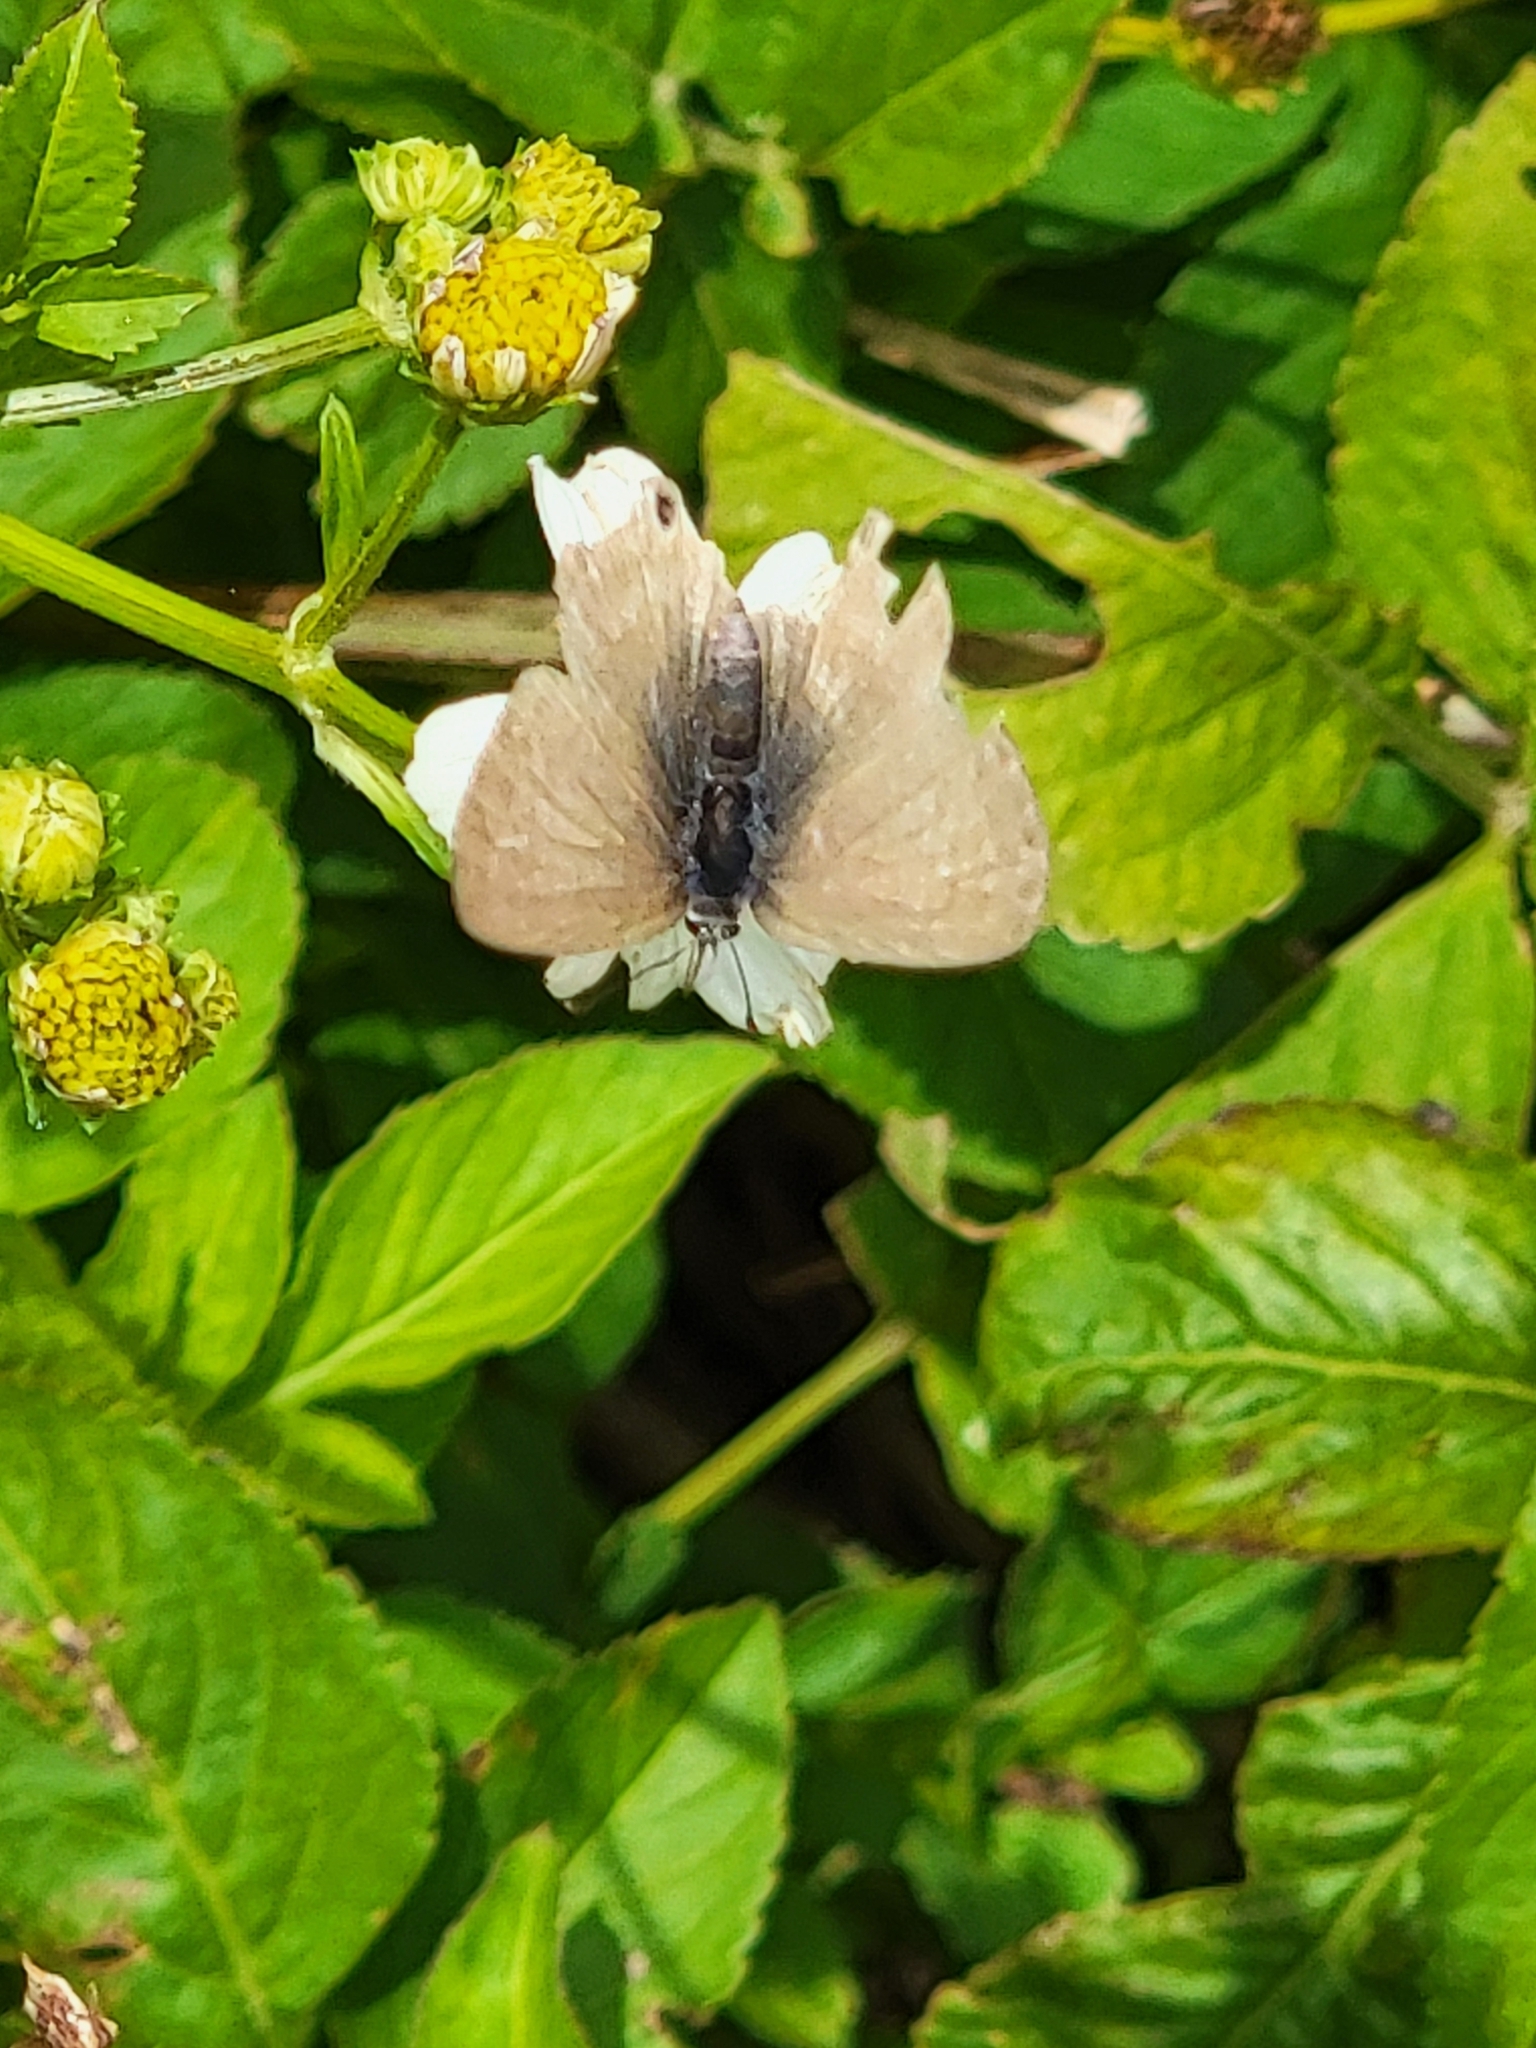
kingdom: Animalia
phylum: Arthropoda
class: Insecta
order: Lepidoptera
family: Lycaenidae
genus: Lampides
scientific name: Lampides boeticus
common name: Long-tailed blue
